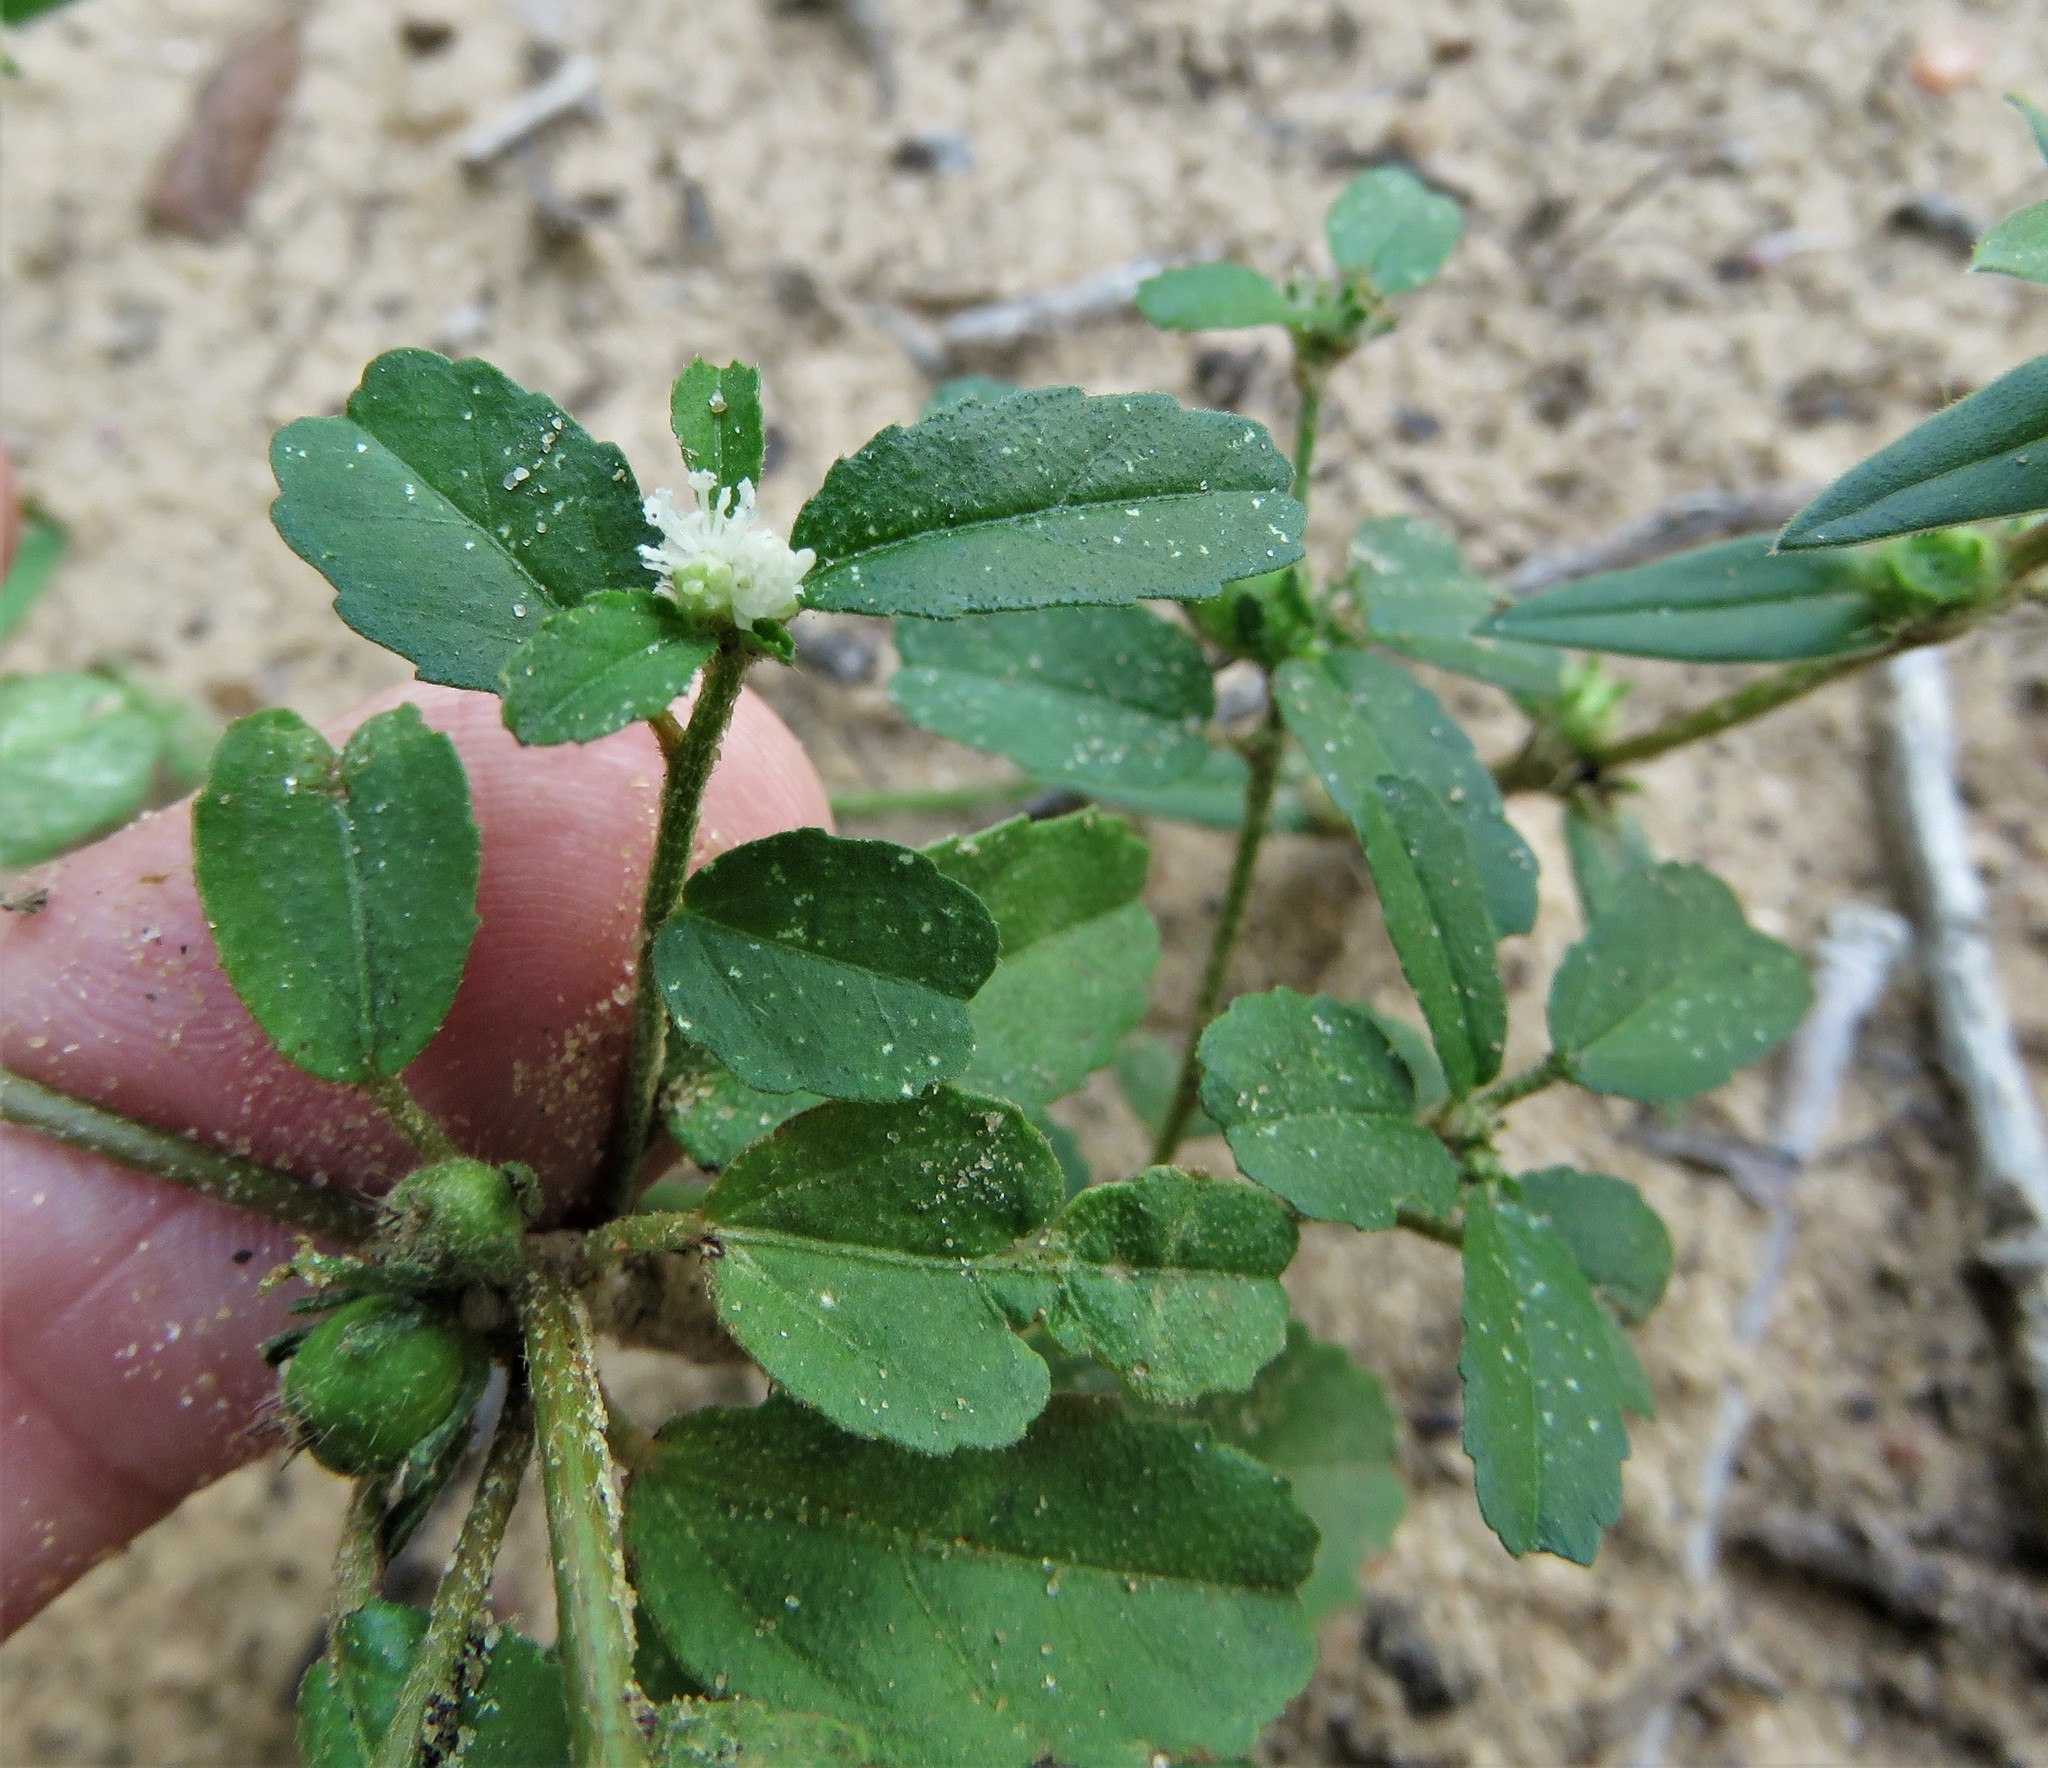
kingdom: Plantae
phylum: Tracheophyta
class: Magnoliopsida
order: Malpighiales
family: Euphorbiaceae
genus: Croton
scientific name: Croton glandulosus
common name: Tropic croton
